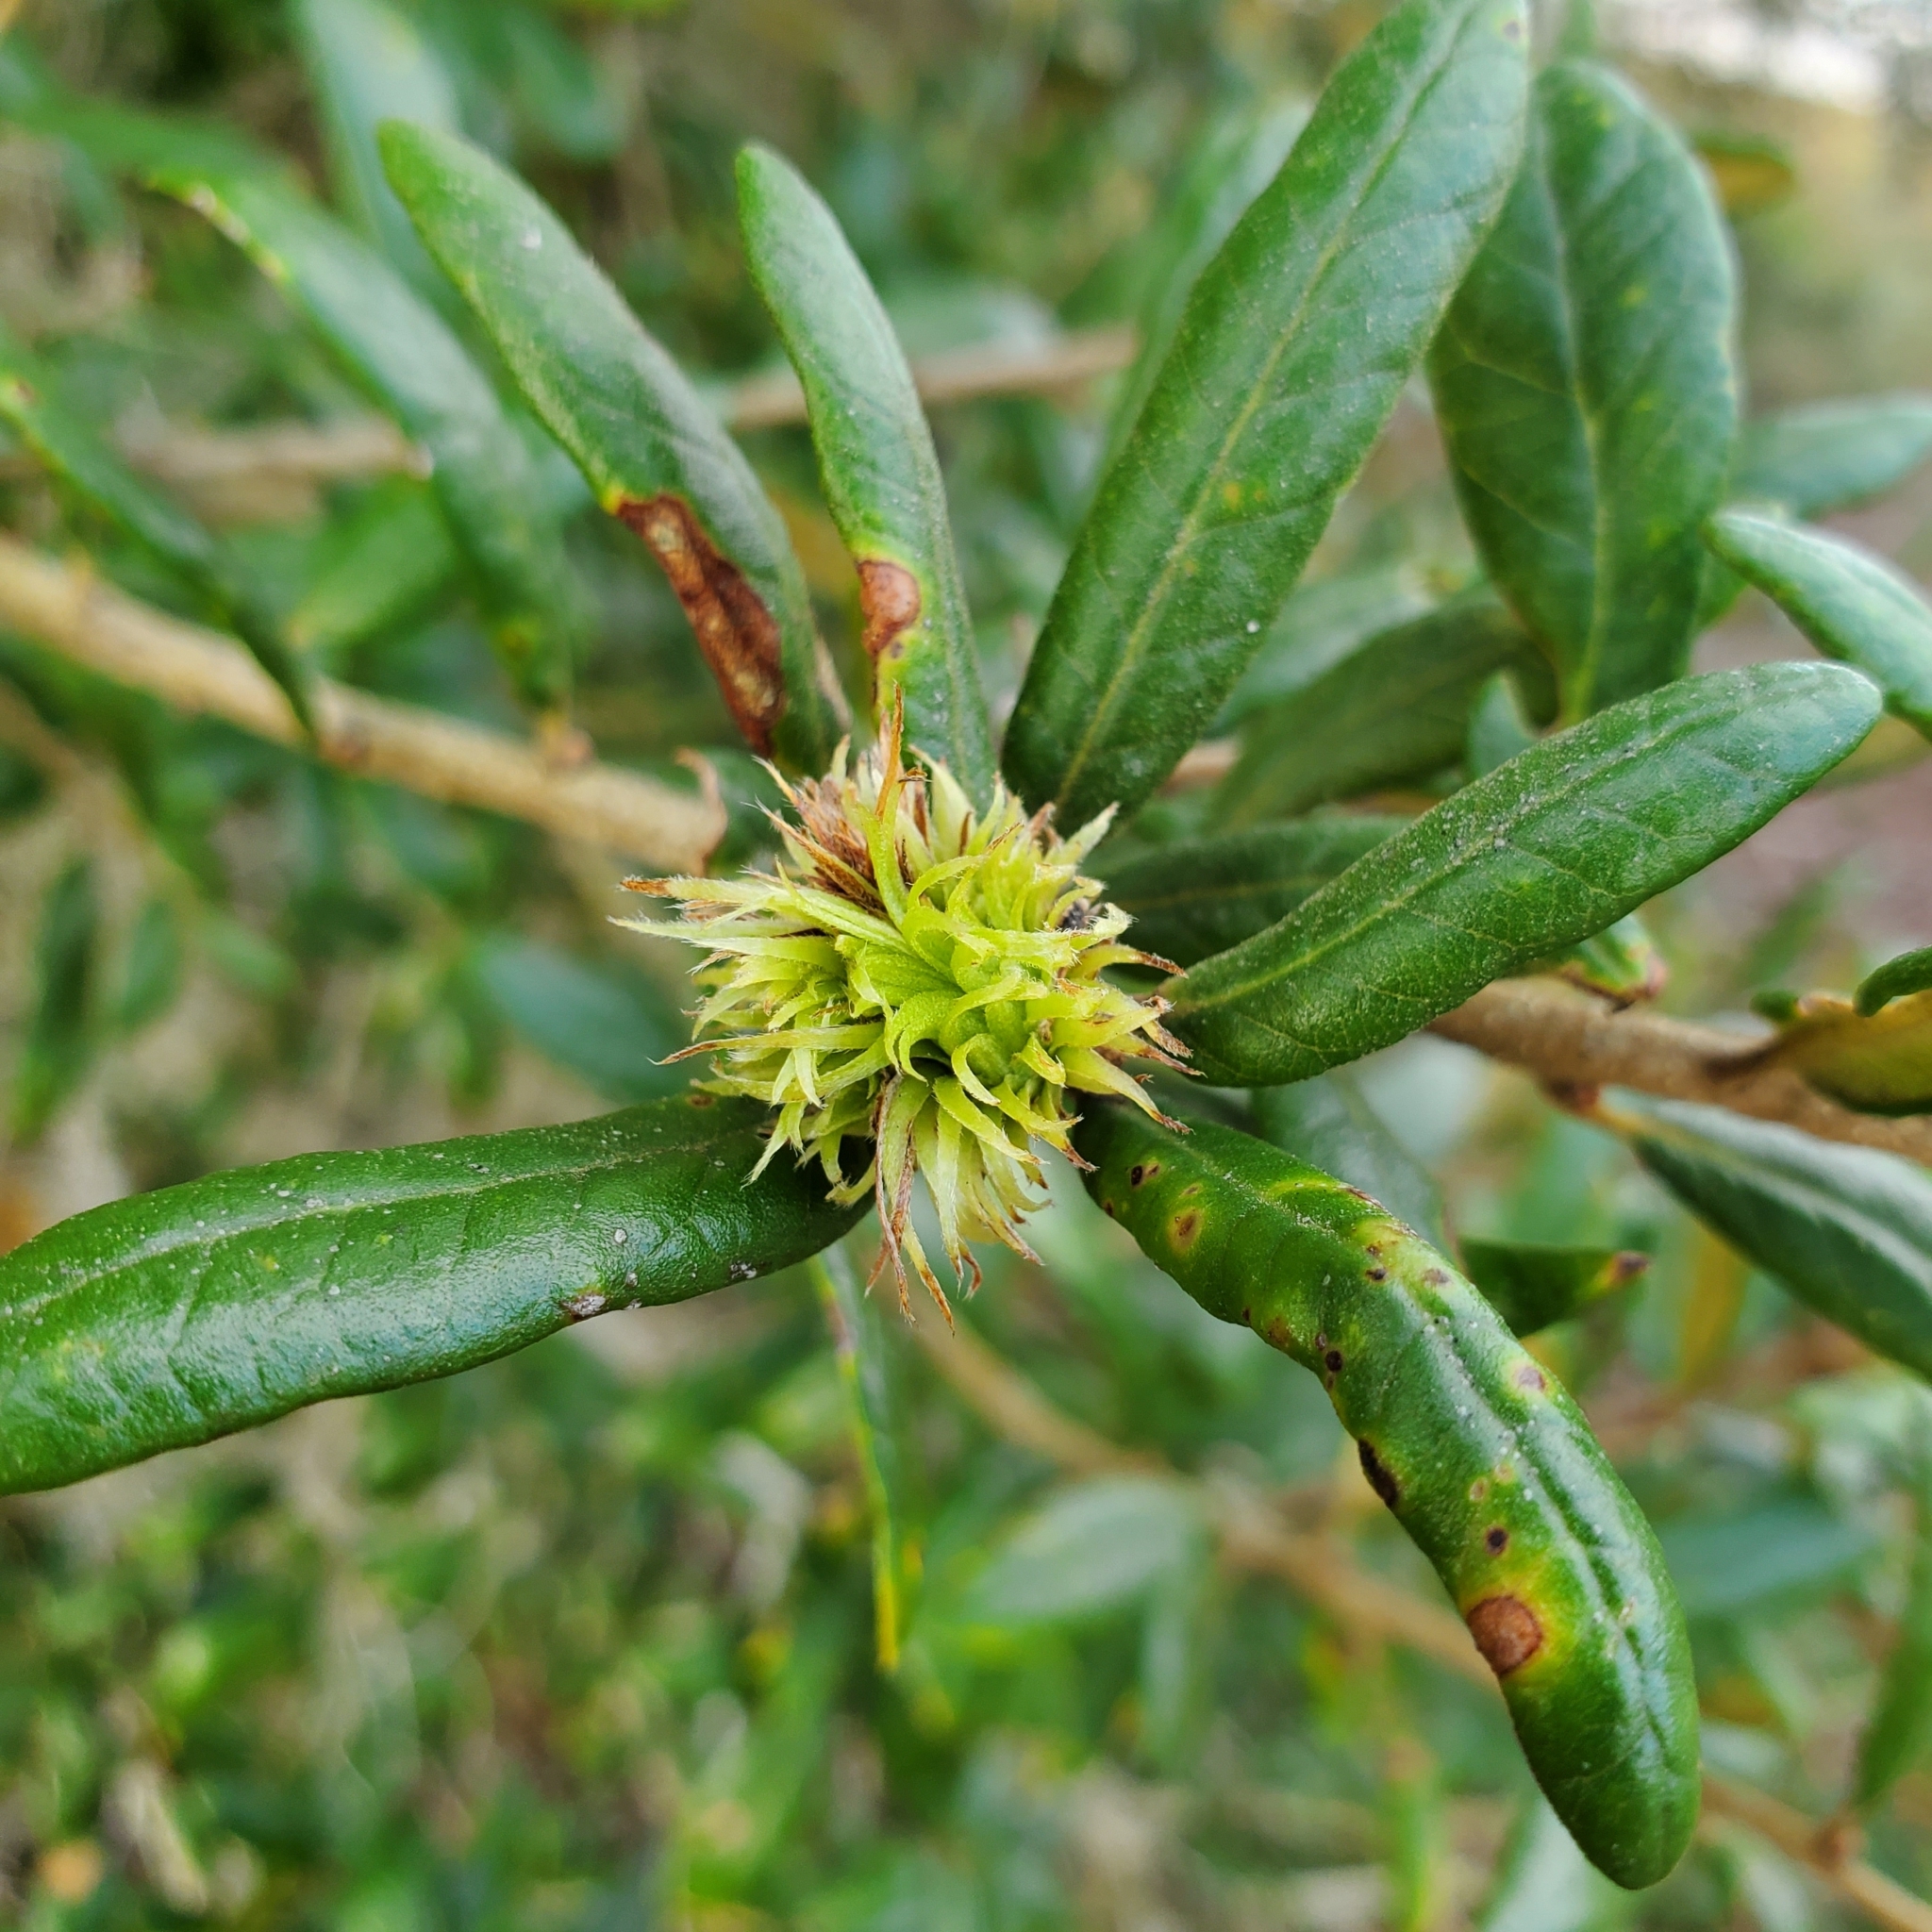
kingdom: Animalia
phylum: Arthropoda
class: Insecta
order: Hymenoptera
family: Cynipidae
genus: Andricus
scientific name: Andricus quercusfoliatus
